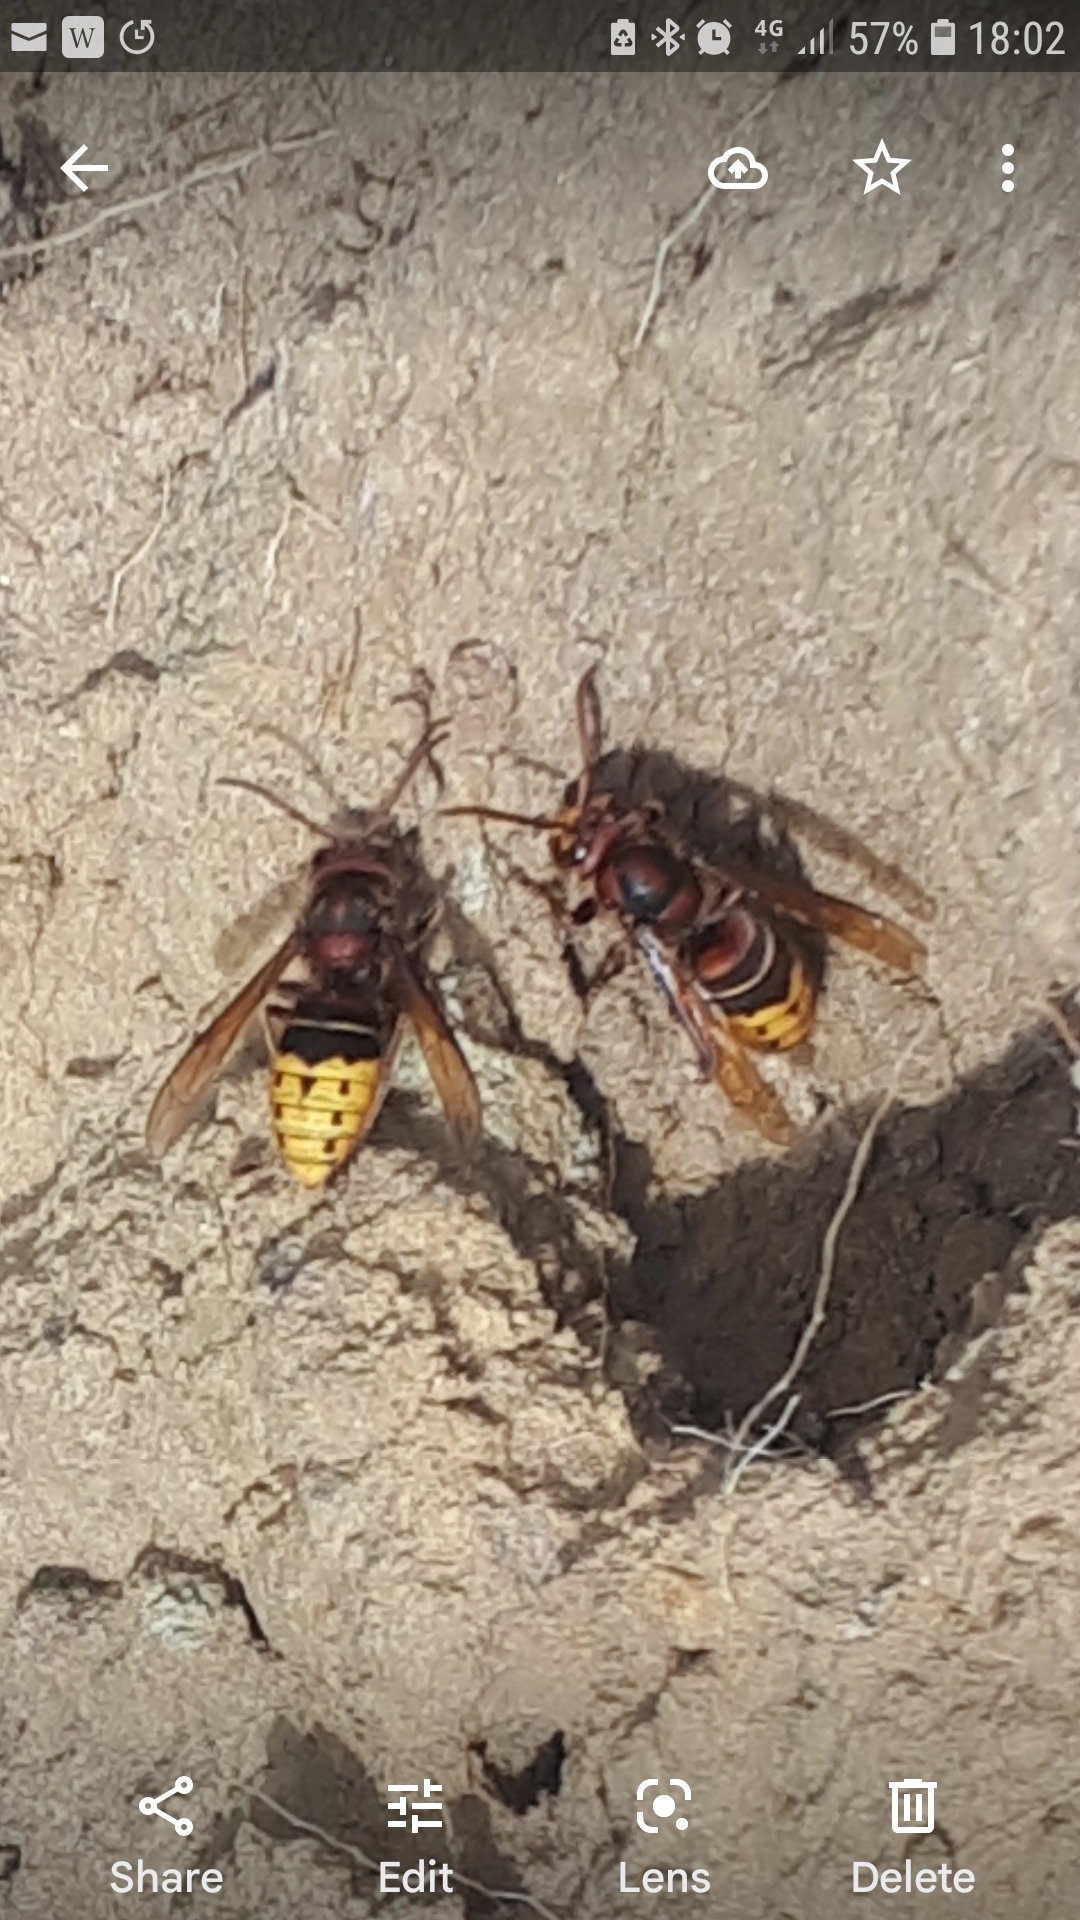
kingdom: Animalia
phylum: Arthropoda
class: Insecta
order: Hymenoptera
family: Vespidae
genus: Vespa
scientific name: Vespa crabro
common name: Hornet
